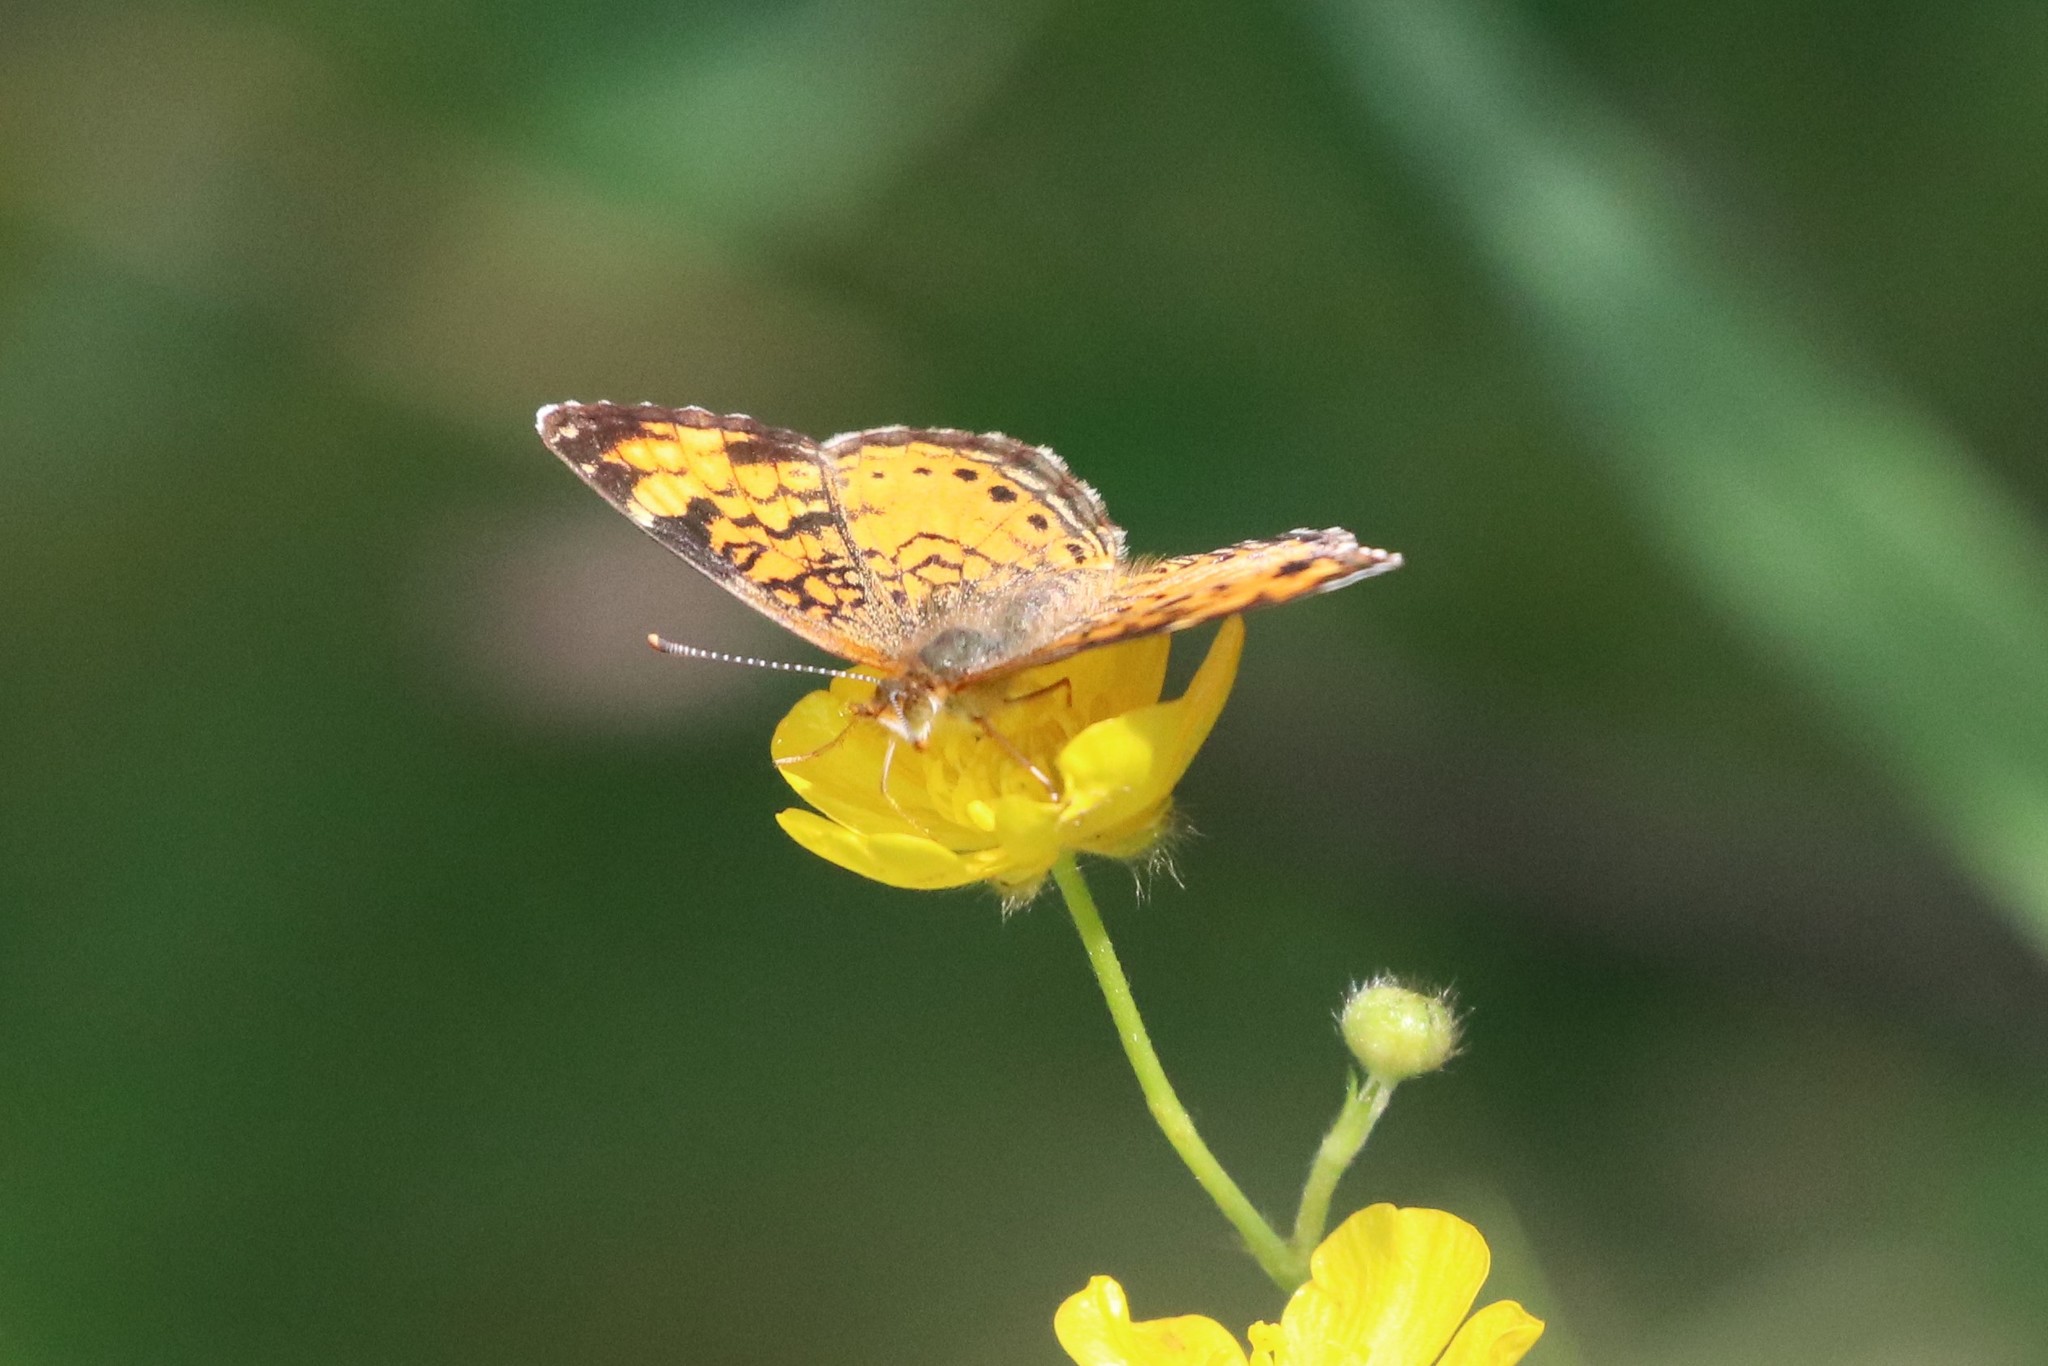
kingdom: Animalia
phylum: Arthropoda
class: Insecta
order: Lepidoptera
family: Nymphalidae
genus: Phyciodes
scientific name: Phyciodes tharos
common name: Pearl crescent
